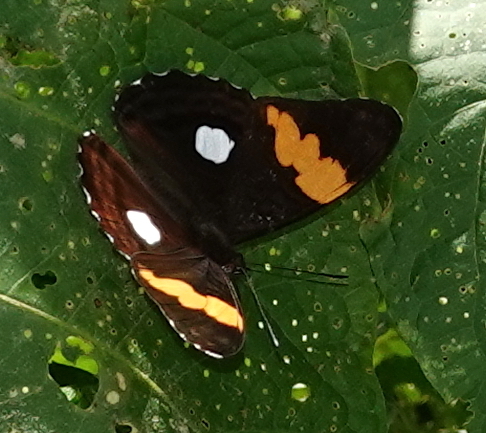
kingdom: Animalia
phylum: Arthropoda
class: Insecta
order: Lepidoptera
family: Nymphalidae
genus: Limenitis
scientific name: Limenitis leucophthalma
